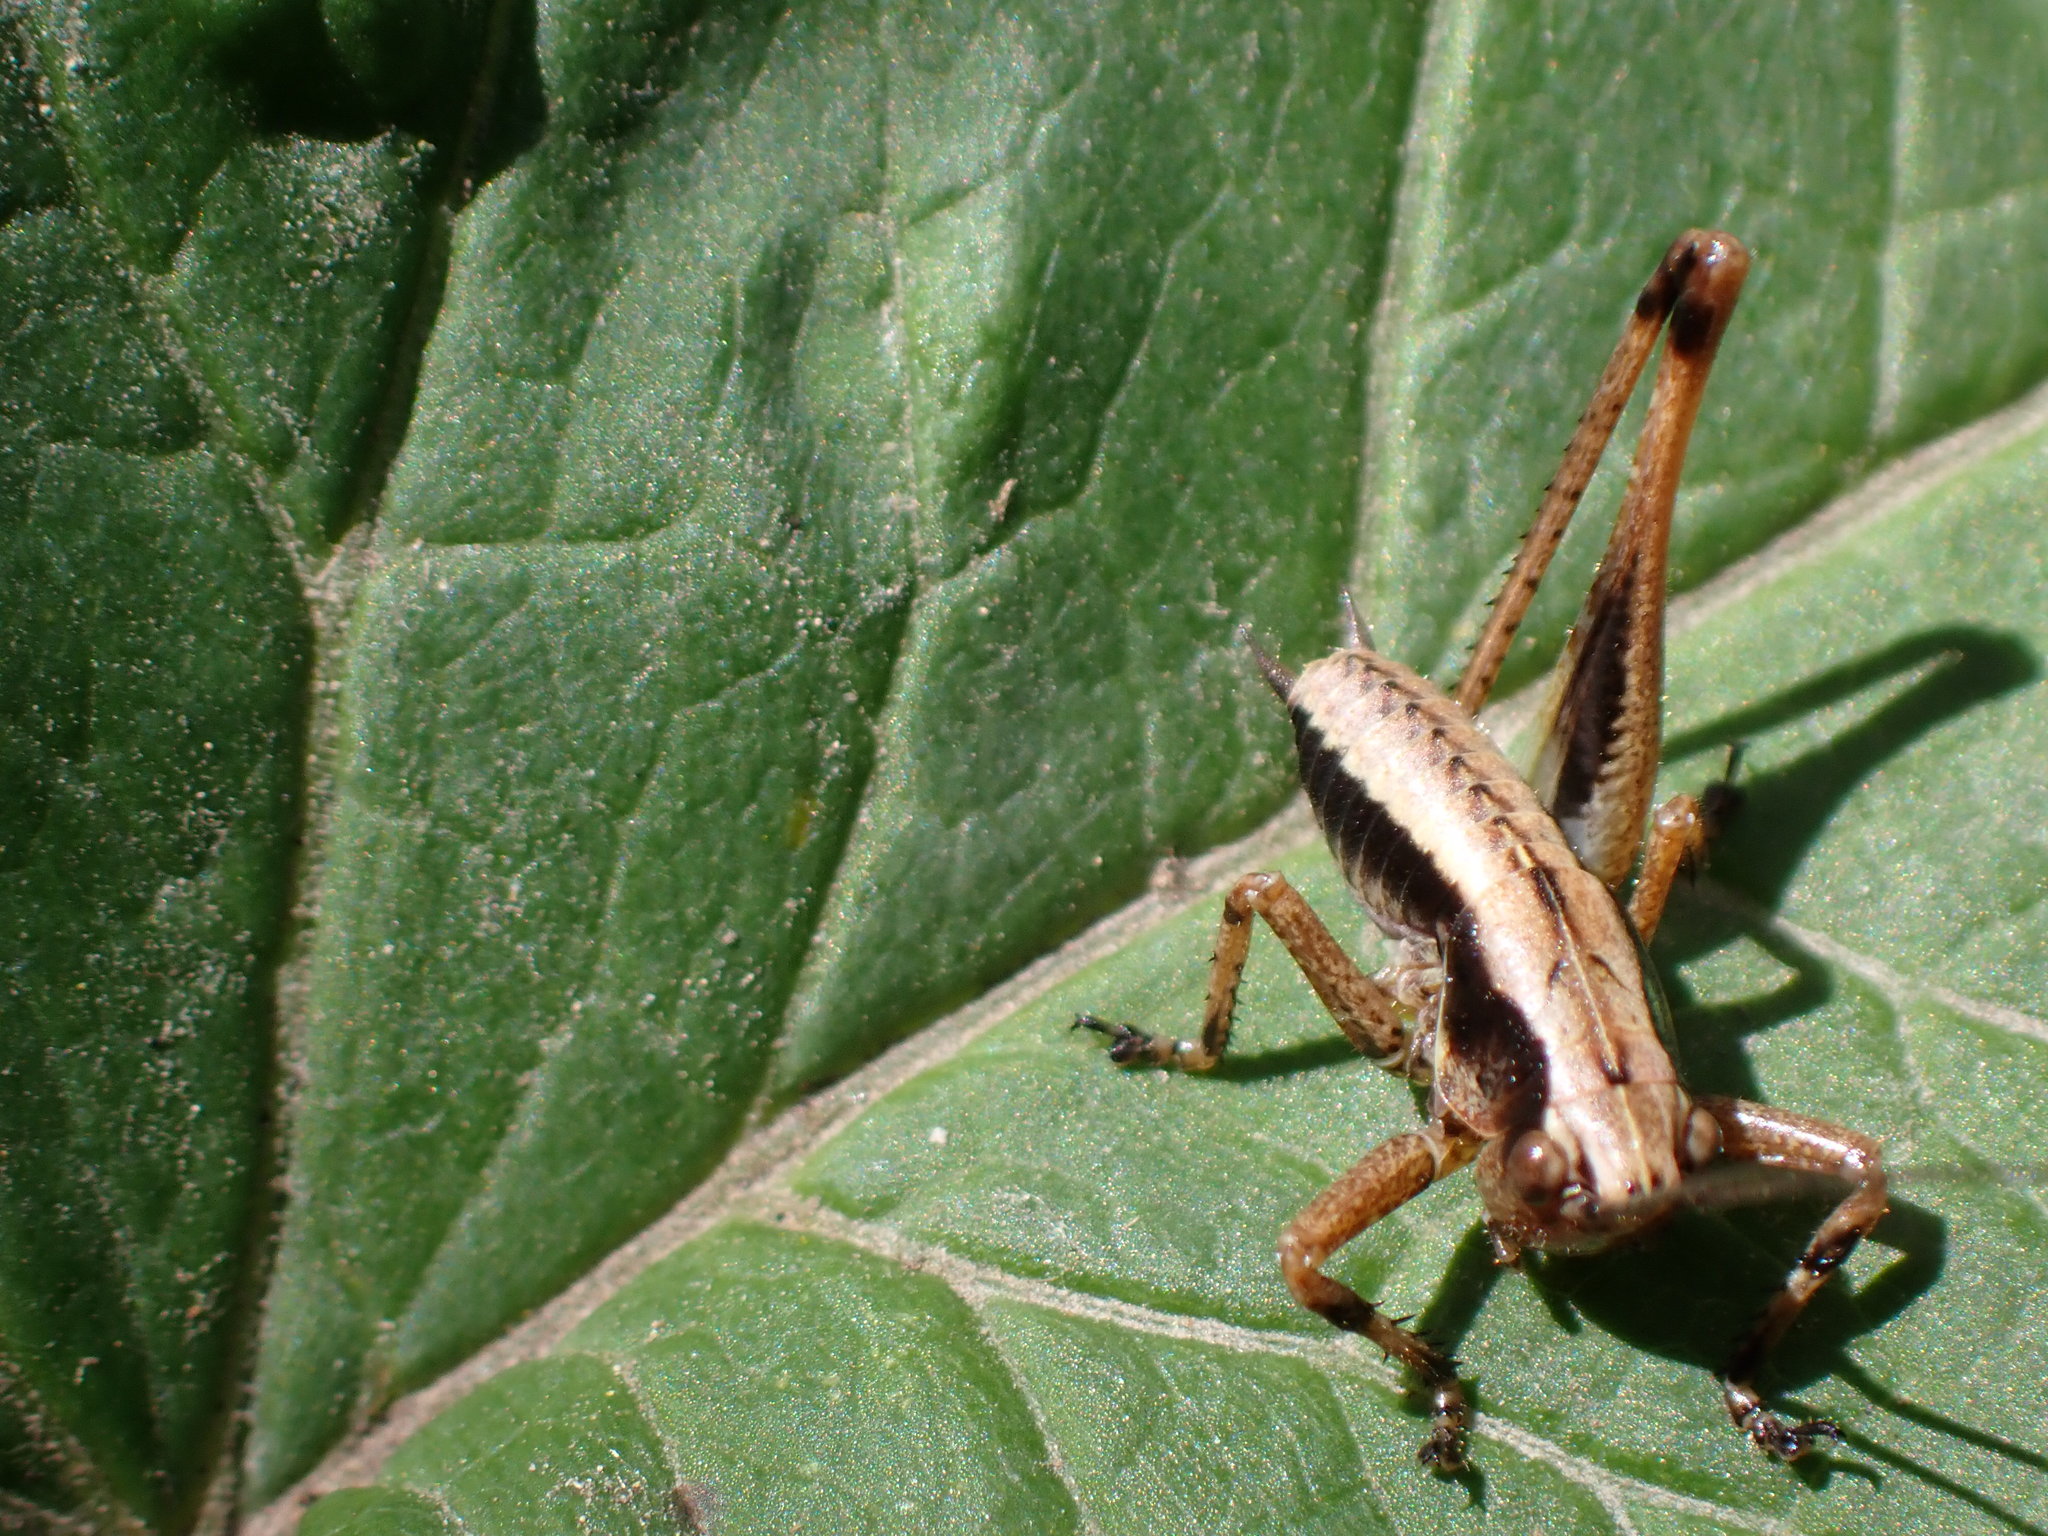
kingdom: Animalia
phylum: Arthropoda
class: Insecta
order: Orthoptera
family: Tettigoniidae
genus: Pholidoptera
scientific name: Pholidoptera griseoaptera
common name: Dark bush-cricket
